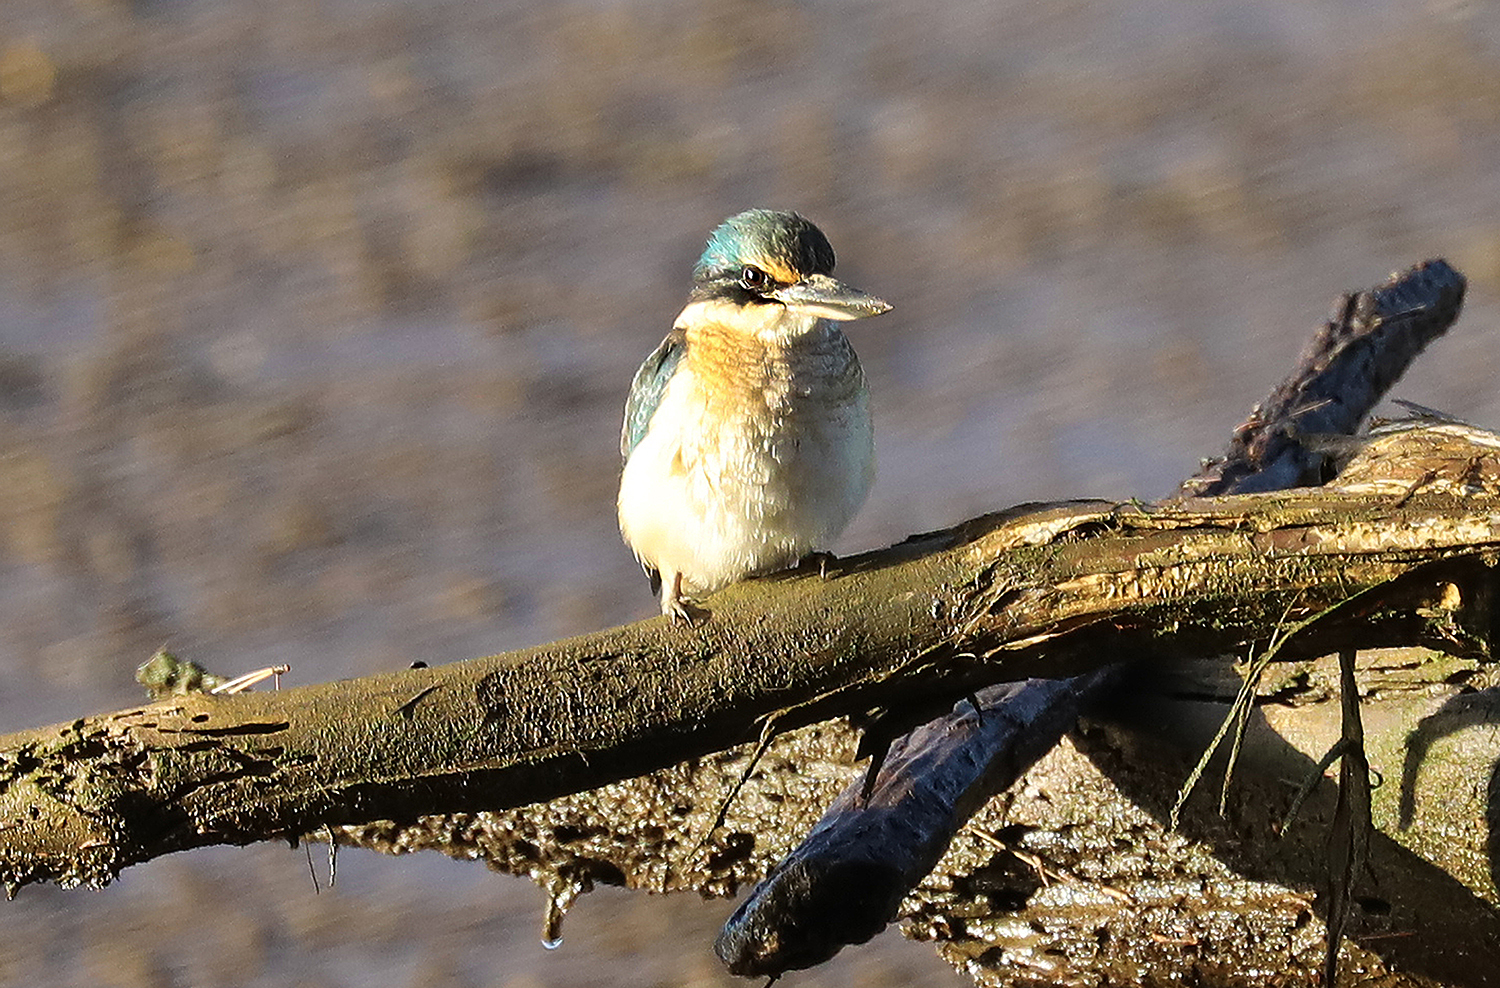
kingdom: Animalia
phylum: Chordata
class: Aves
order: Coraciiformes
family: Alcedinidae
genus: Todiramphus
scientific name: Todiramphus sanctus
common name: Sacred kingfisher
